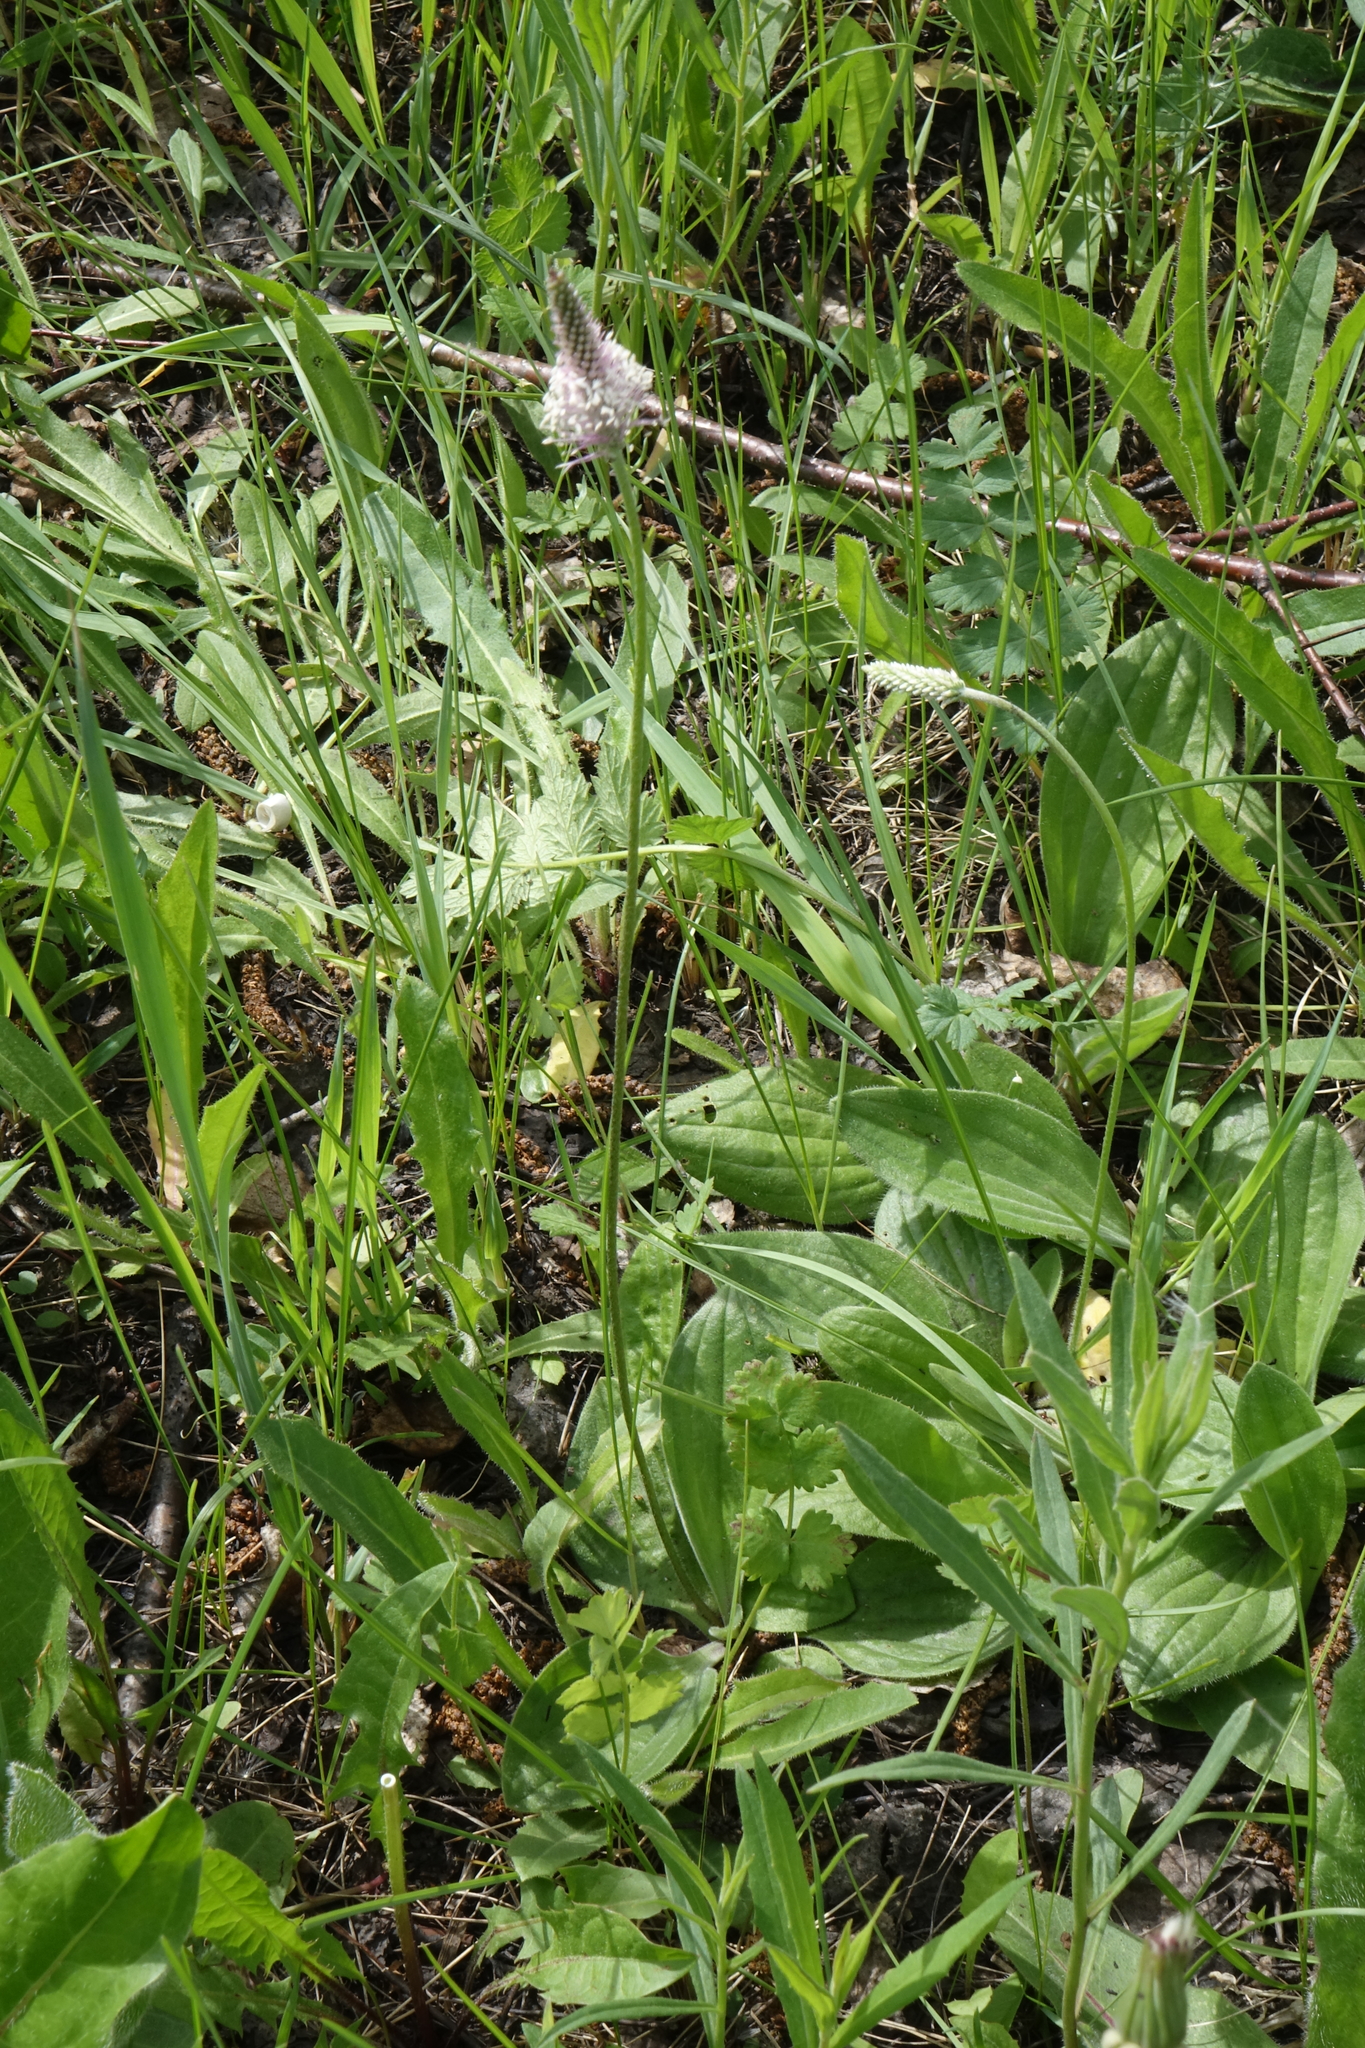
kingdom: Plantae
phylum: Tracheophyta
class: Magnoliopsida
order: Lamiales
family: Plantaginaceae
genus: Plantago
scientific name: Plantago media
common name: Hoary plantain
